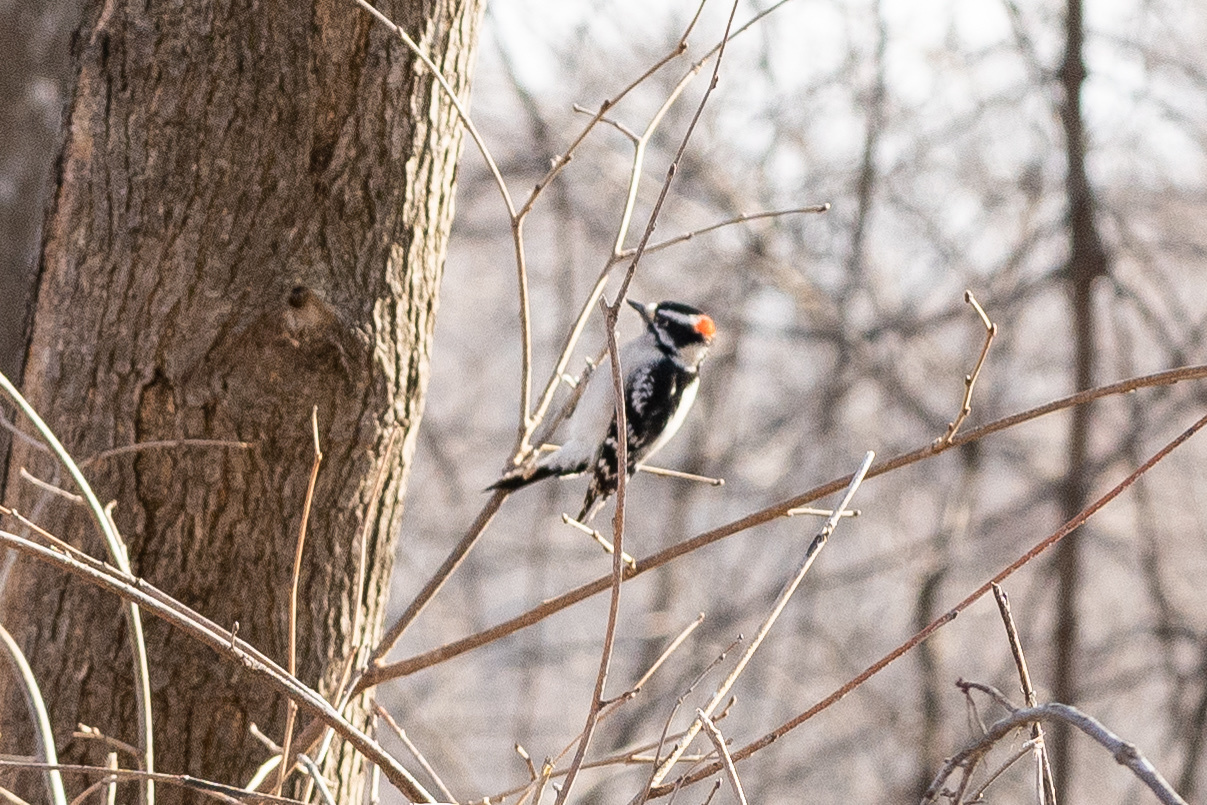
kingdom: Animalia
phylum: Chordata
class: Aves
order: Piciformes
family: Picidae
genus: Dryobates
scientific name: Dryobates pubescens
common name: Downy woodpecker
